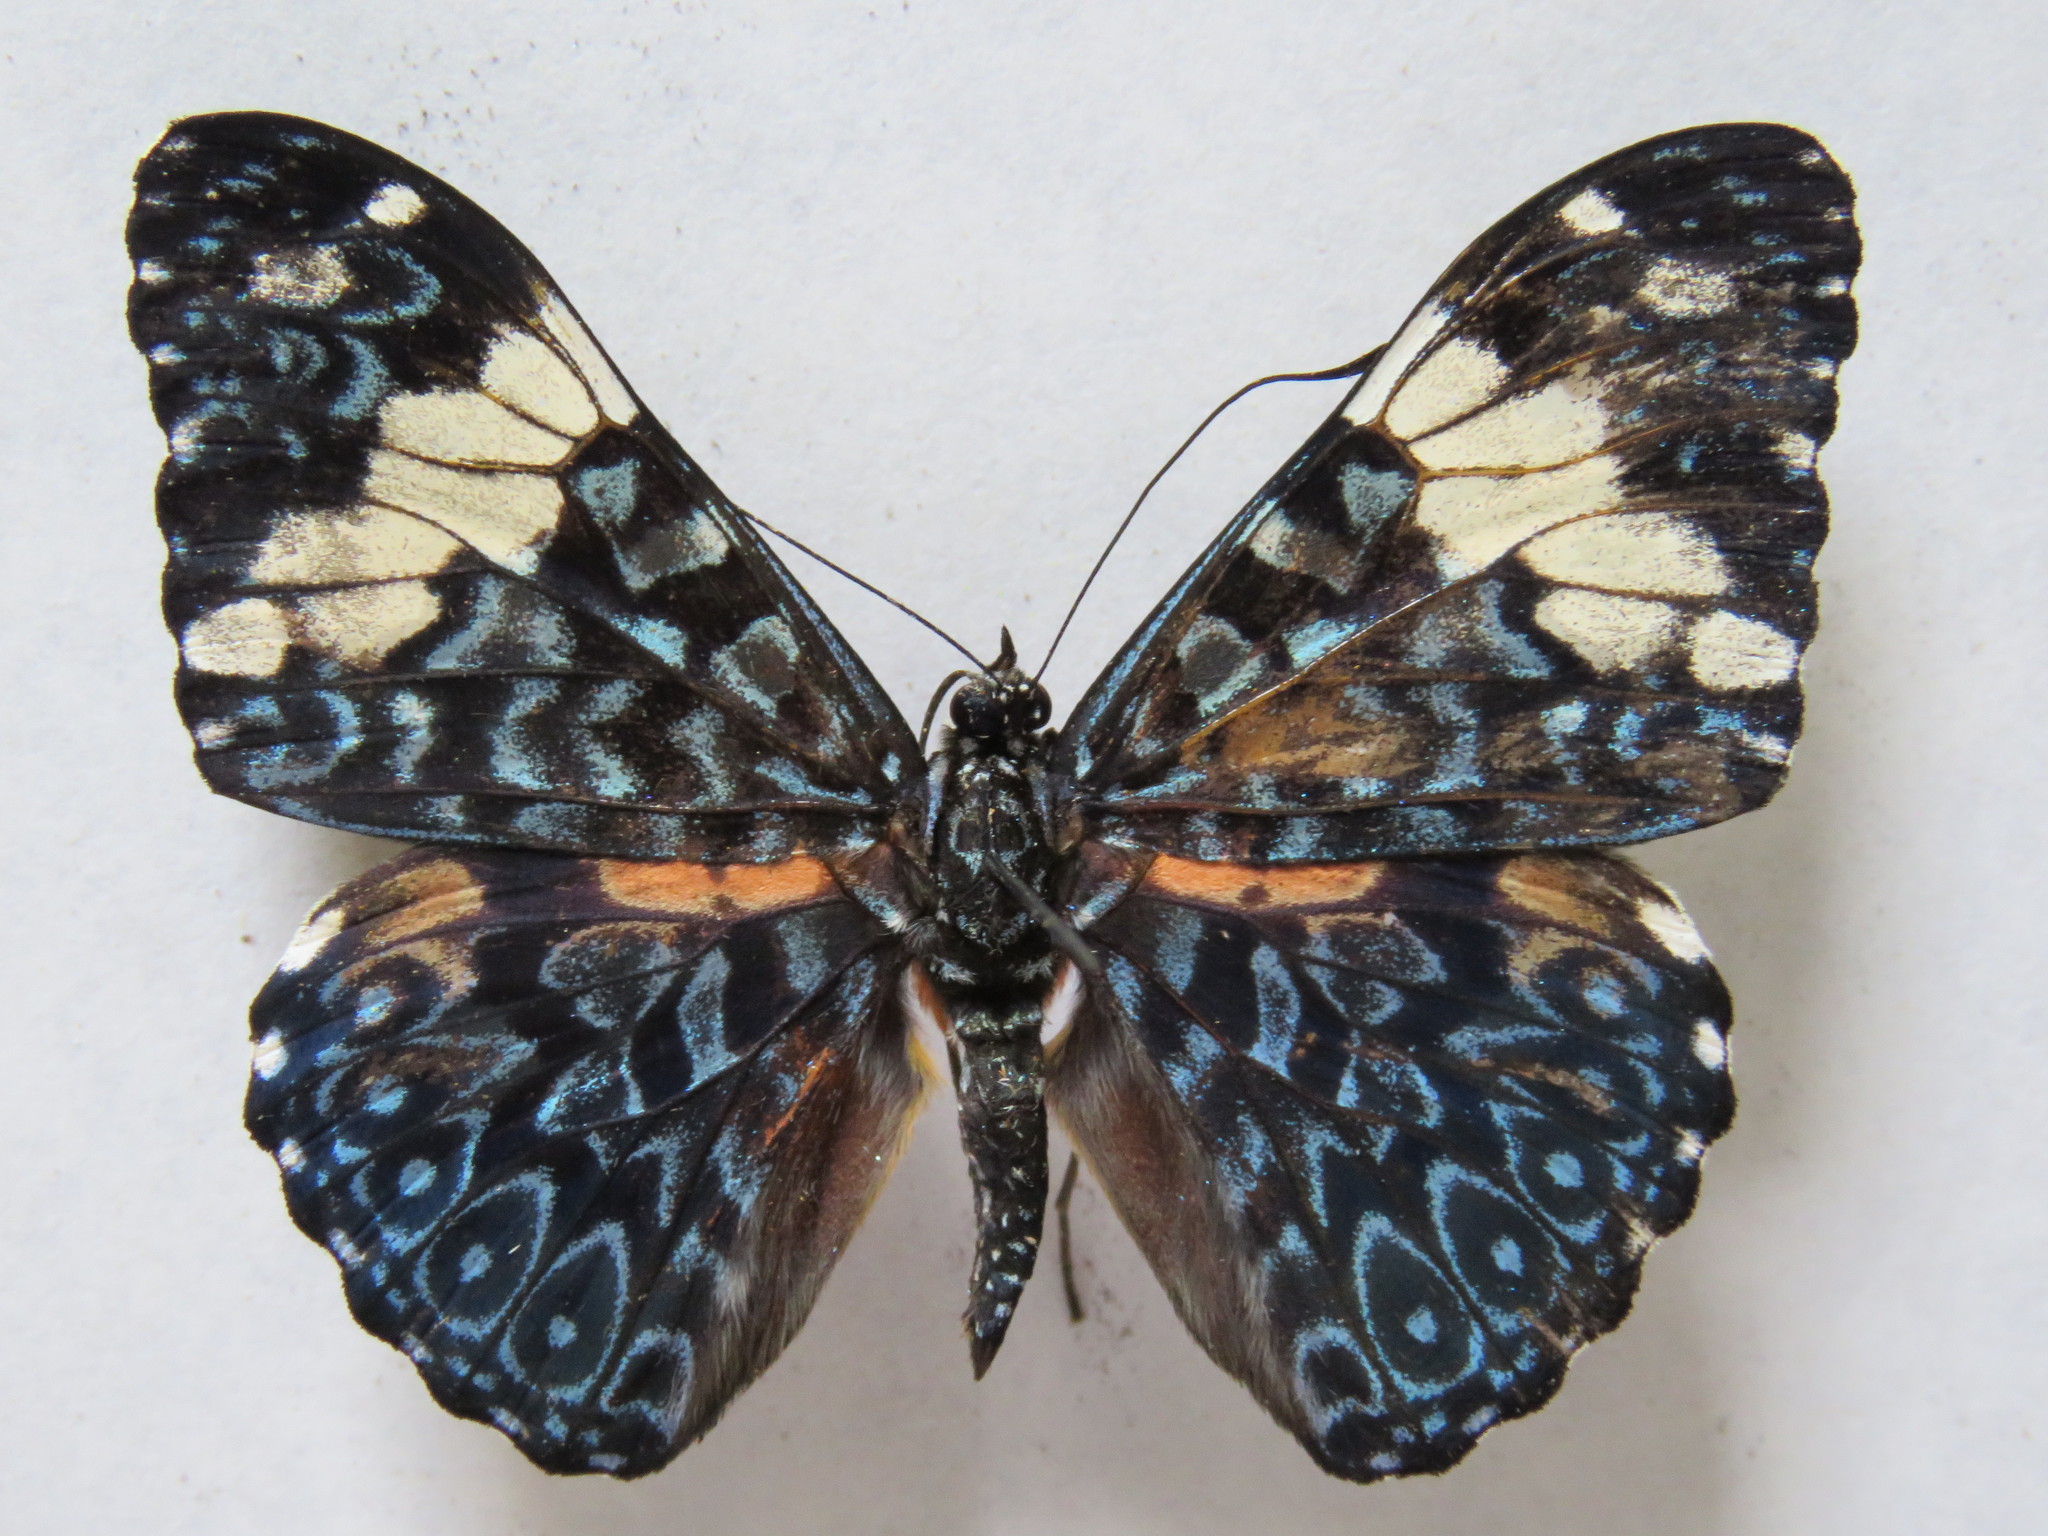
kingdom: Animalia
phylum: Arthropoda
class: Insecta
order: Lepidoptera
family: Nymphalidae
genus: Hamadryas
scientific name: Hamadryas amphinome
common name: Red cracker
